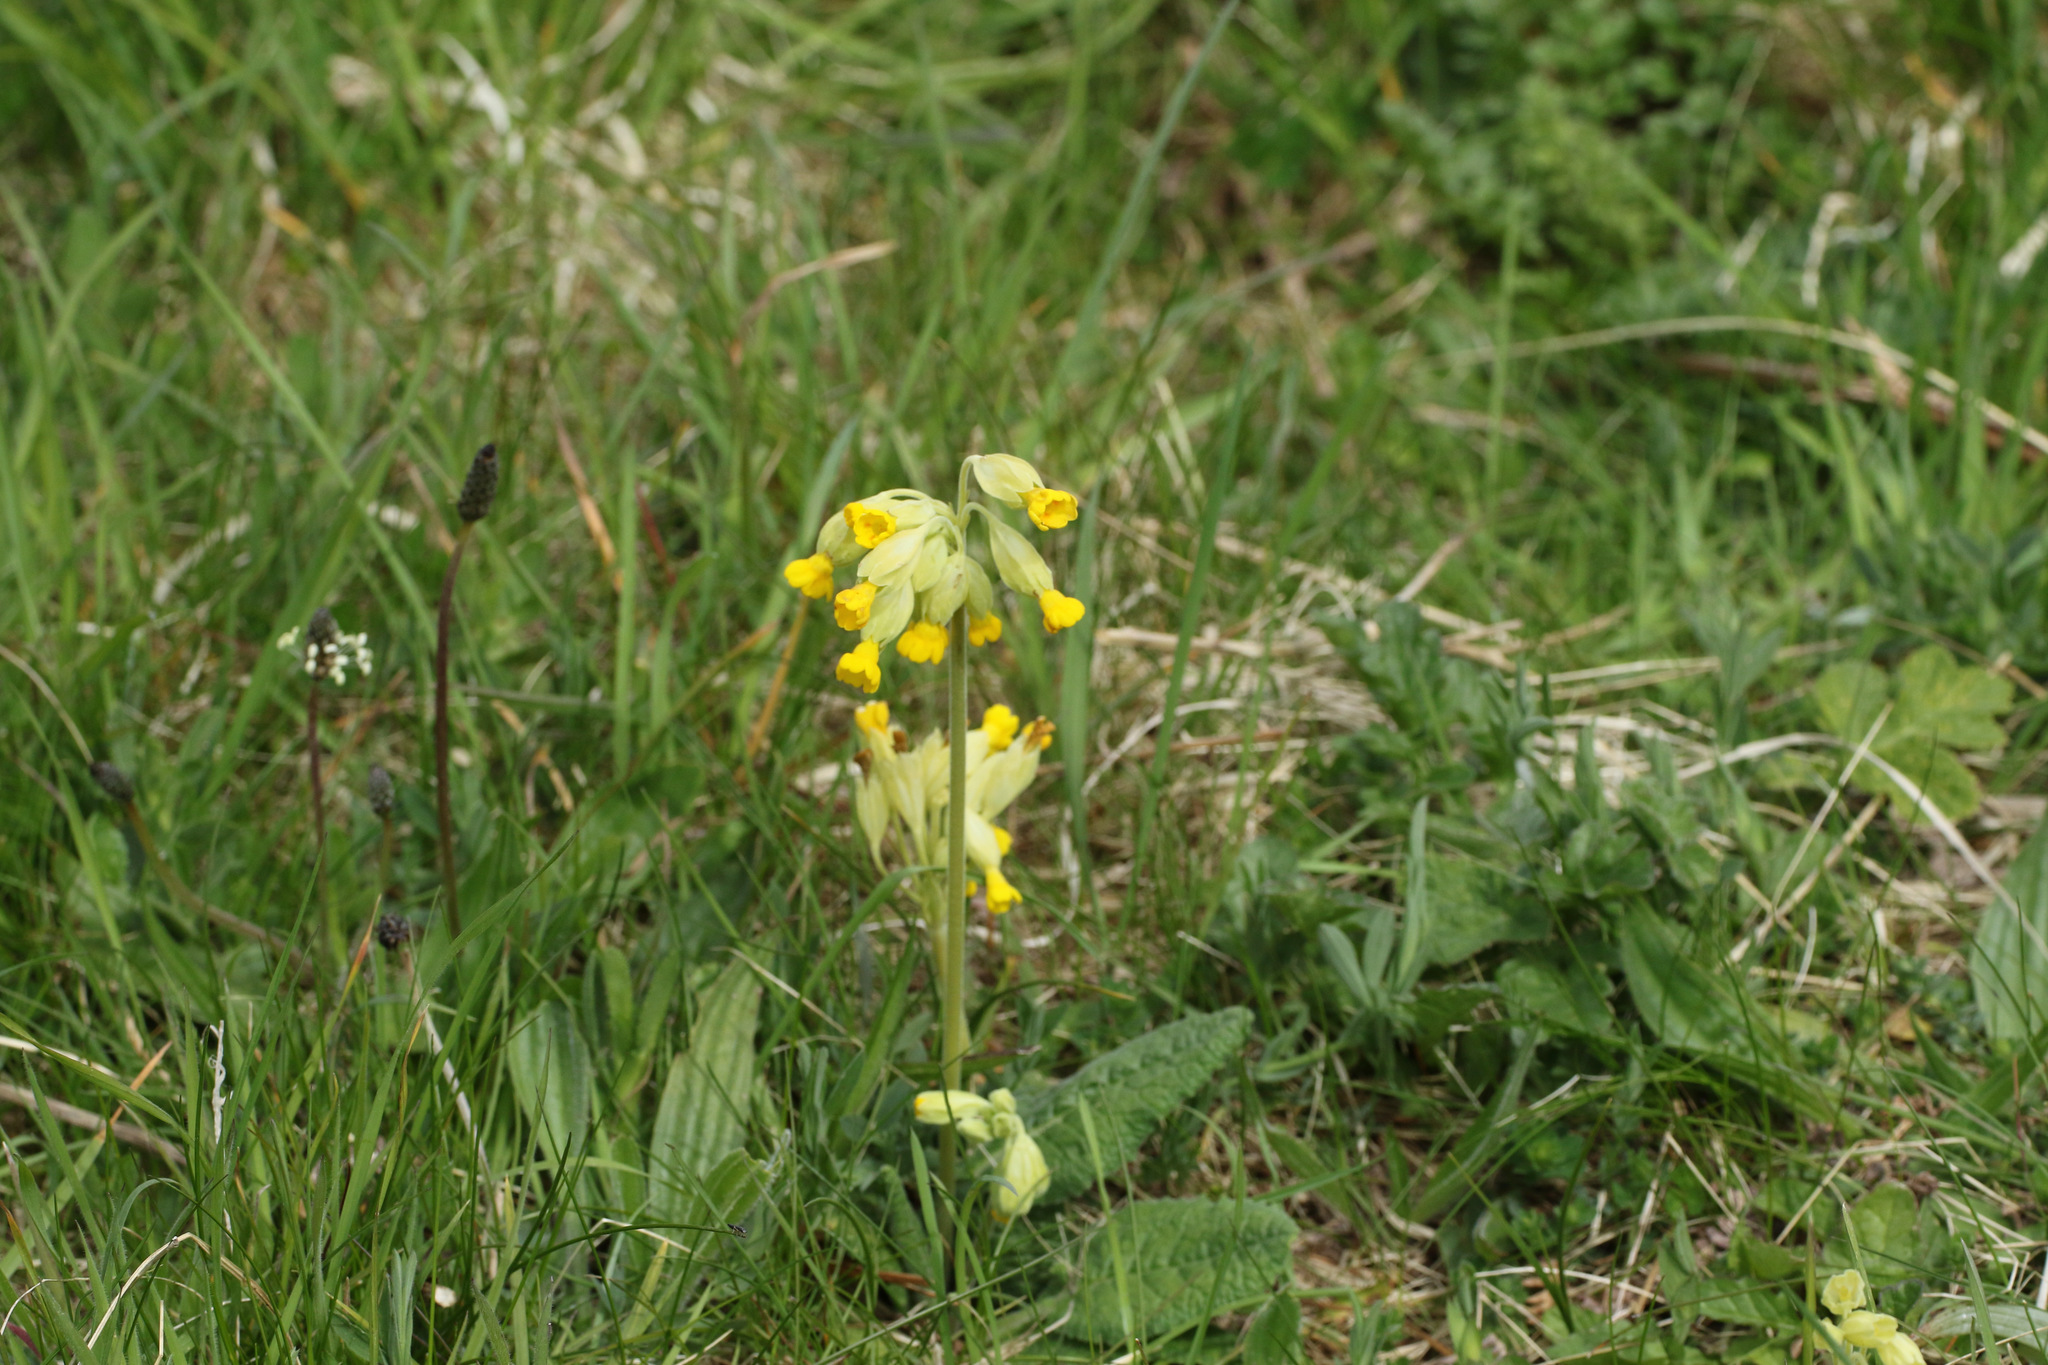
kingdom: Plantae
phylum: Tracheophyta
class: Magnoliopsida
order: Ericales
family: Primulaceae
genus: Primula
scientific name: Primula veris
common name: Cowslip
